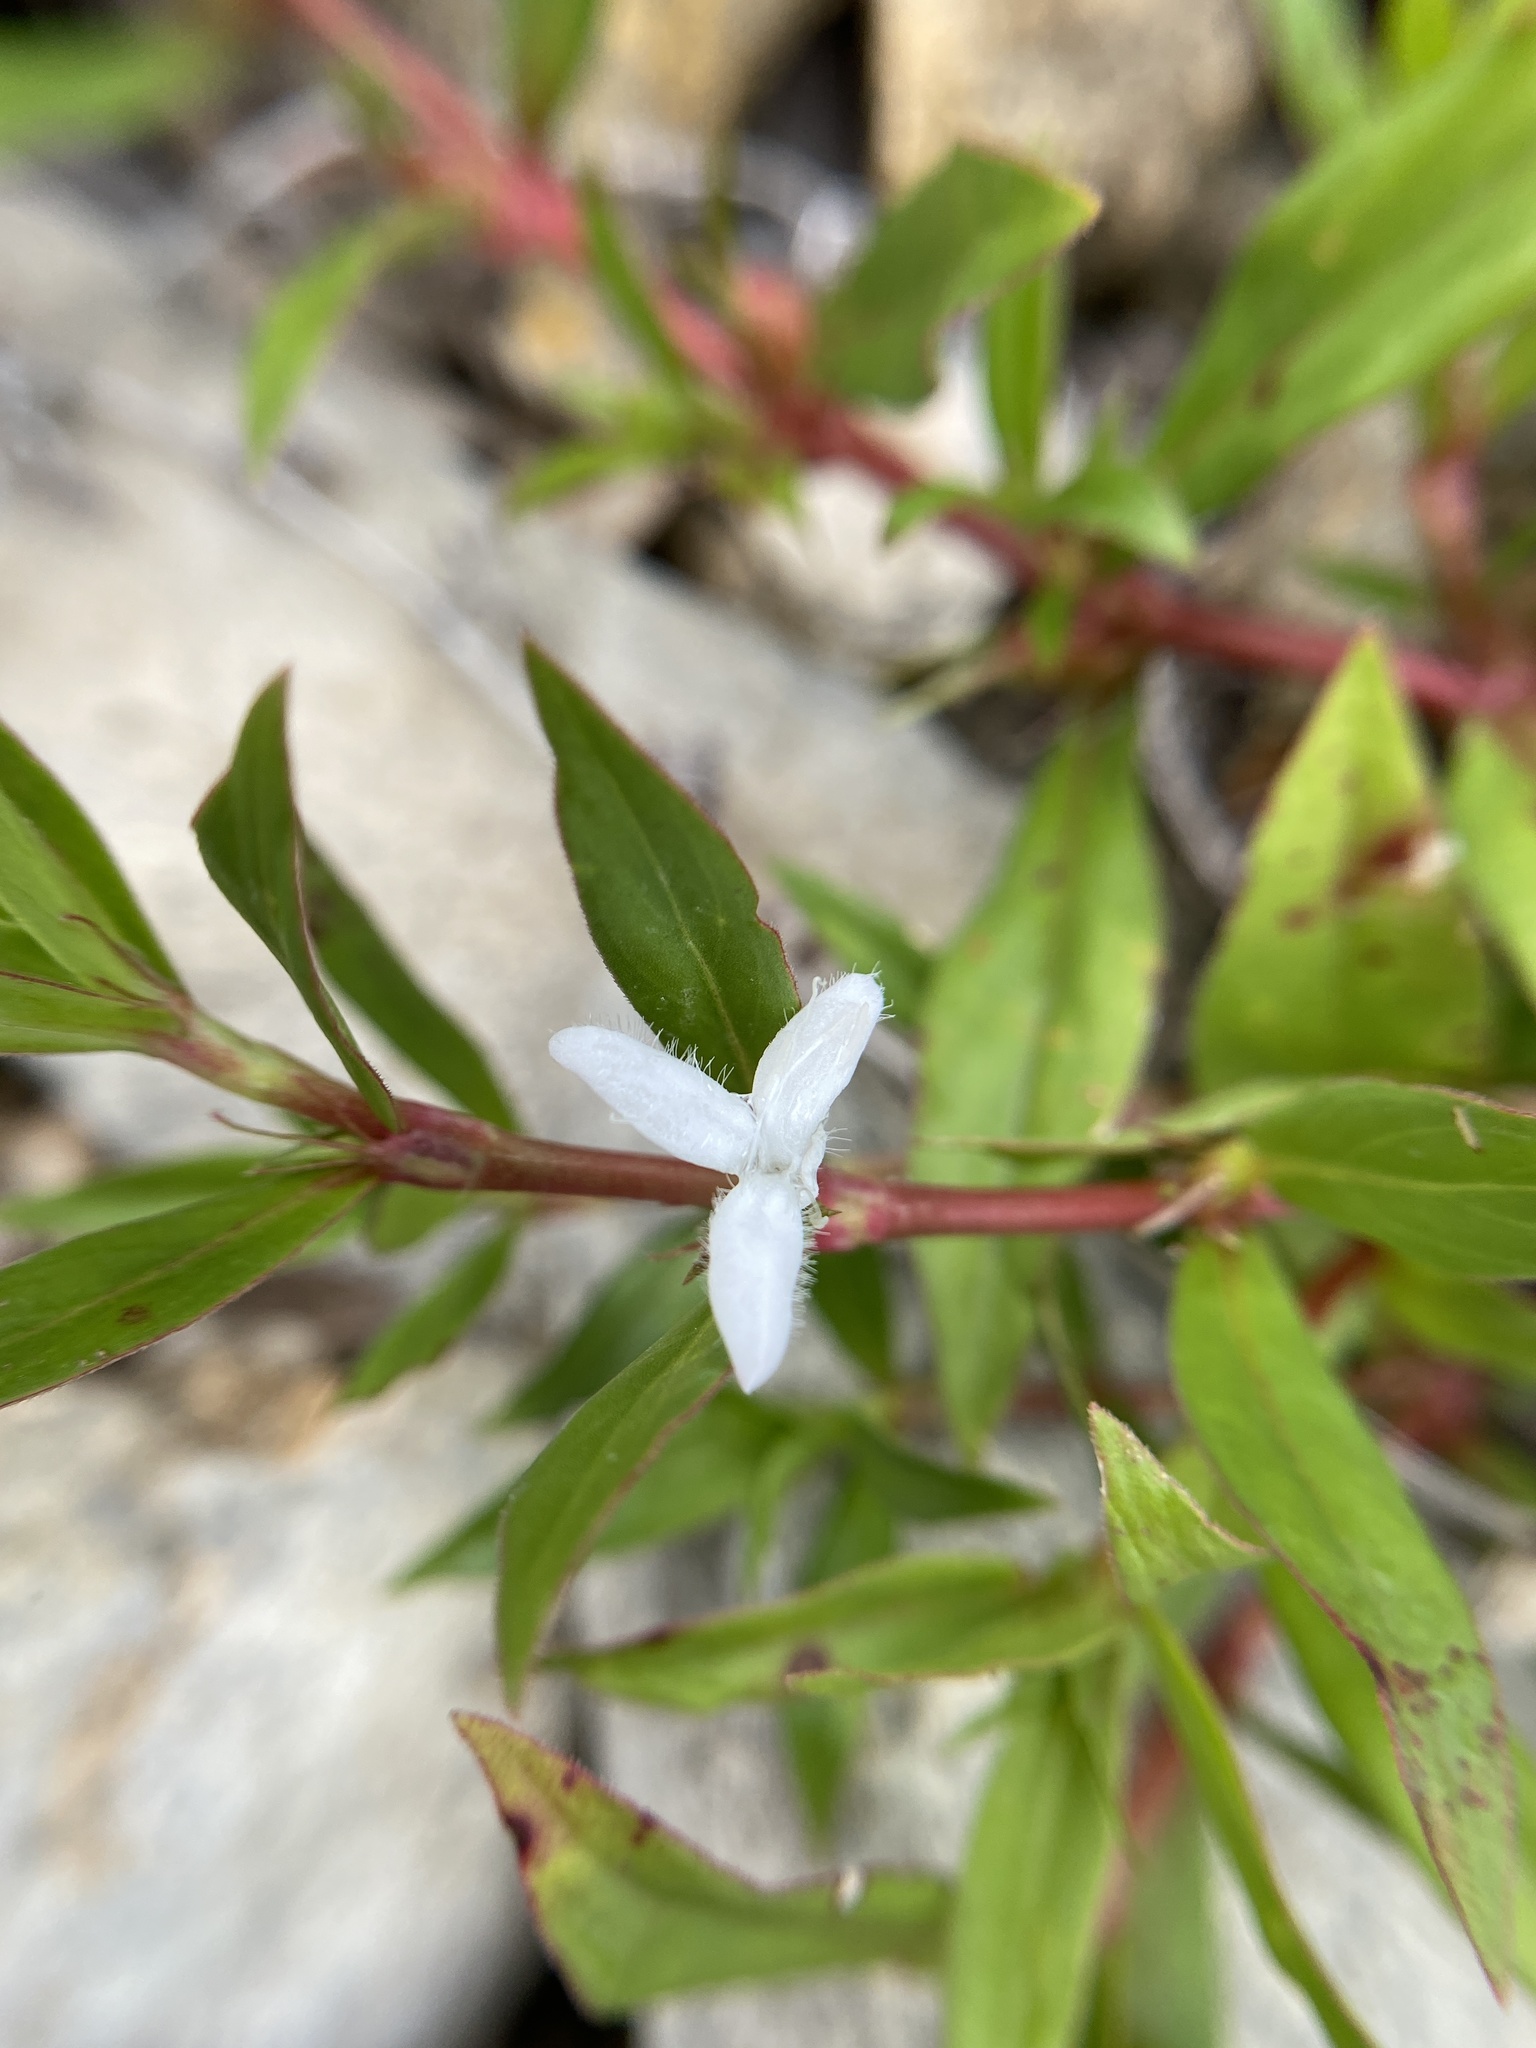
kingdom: Plantae
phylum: Tracheophyta
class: Magnoliopsida
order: Gentianales
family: Rubiaceae
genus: Diodia
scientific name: Diodia virginiana
